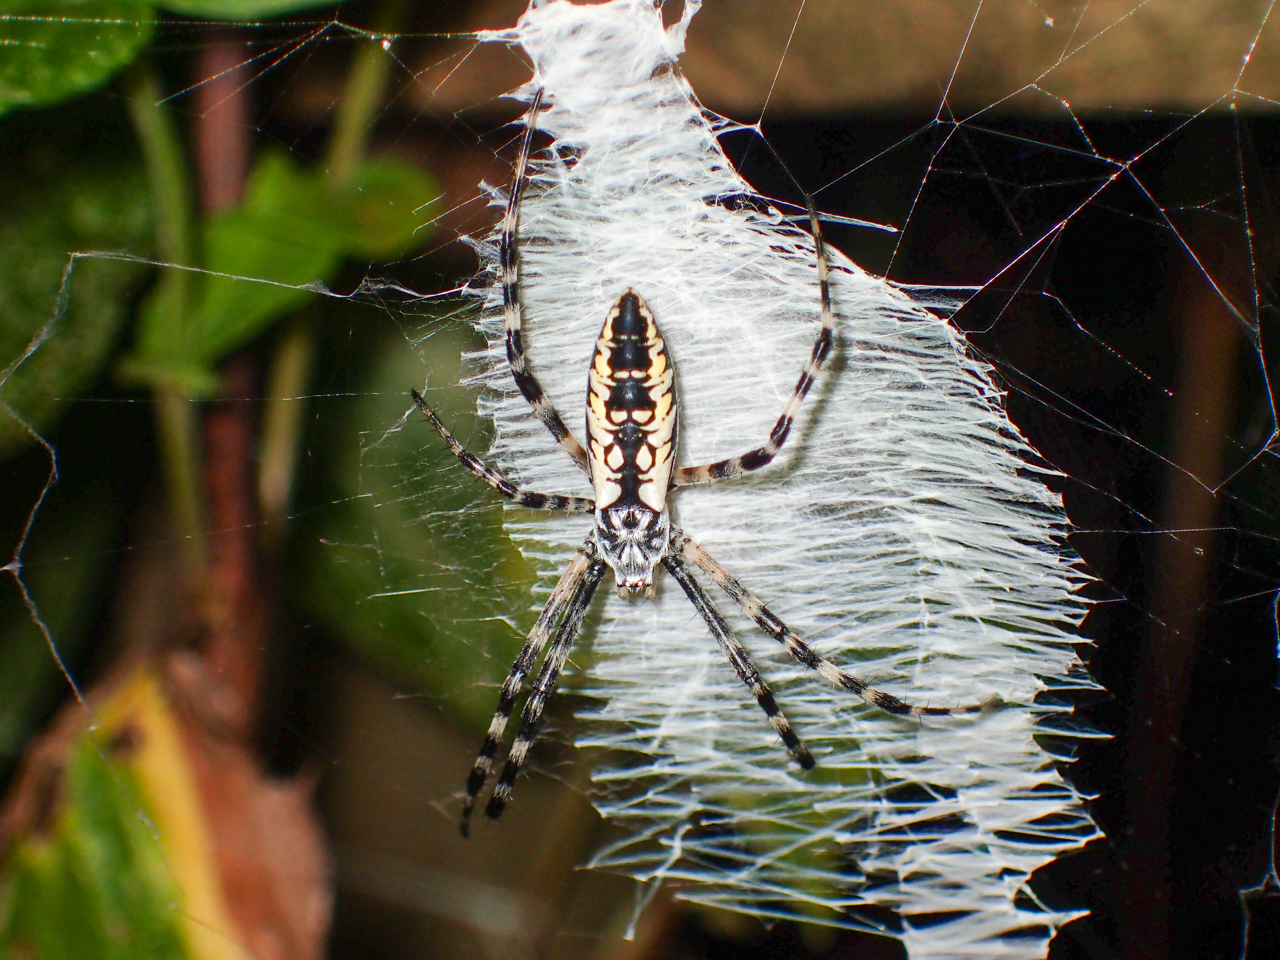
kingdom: Animalia
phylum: Arthropoda
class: Arachnida
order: Araneae
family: Araneidae
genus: Argiope
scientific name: Argiope aurantia
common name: Orb weavers
